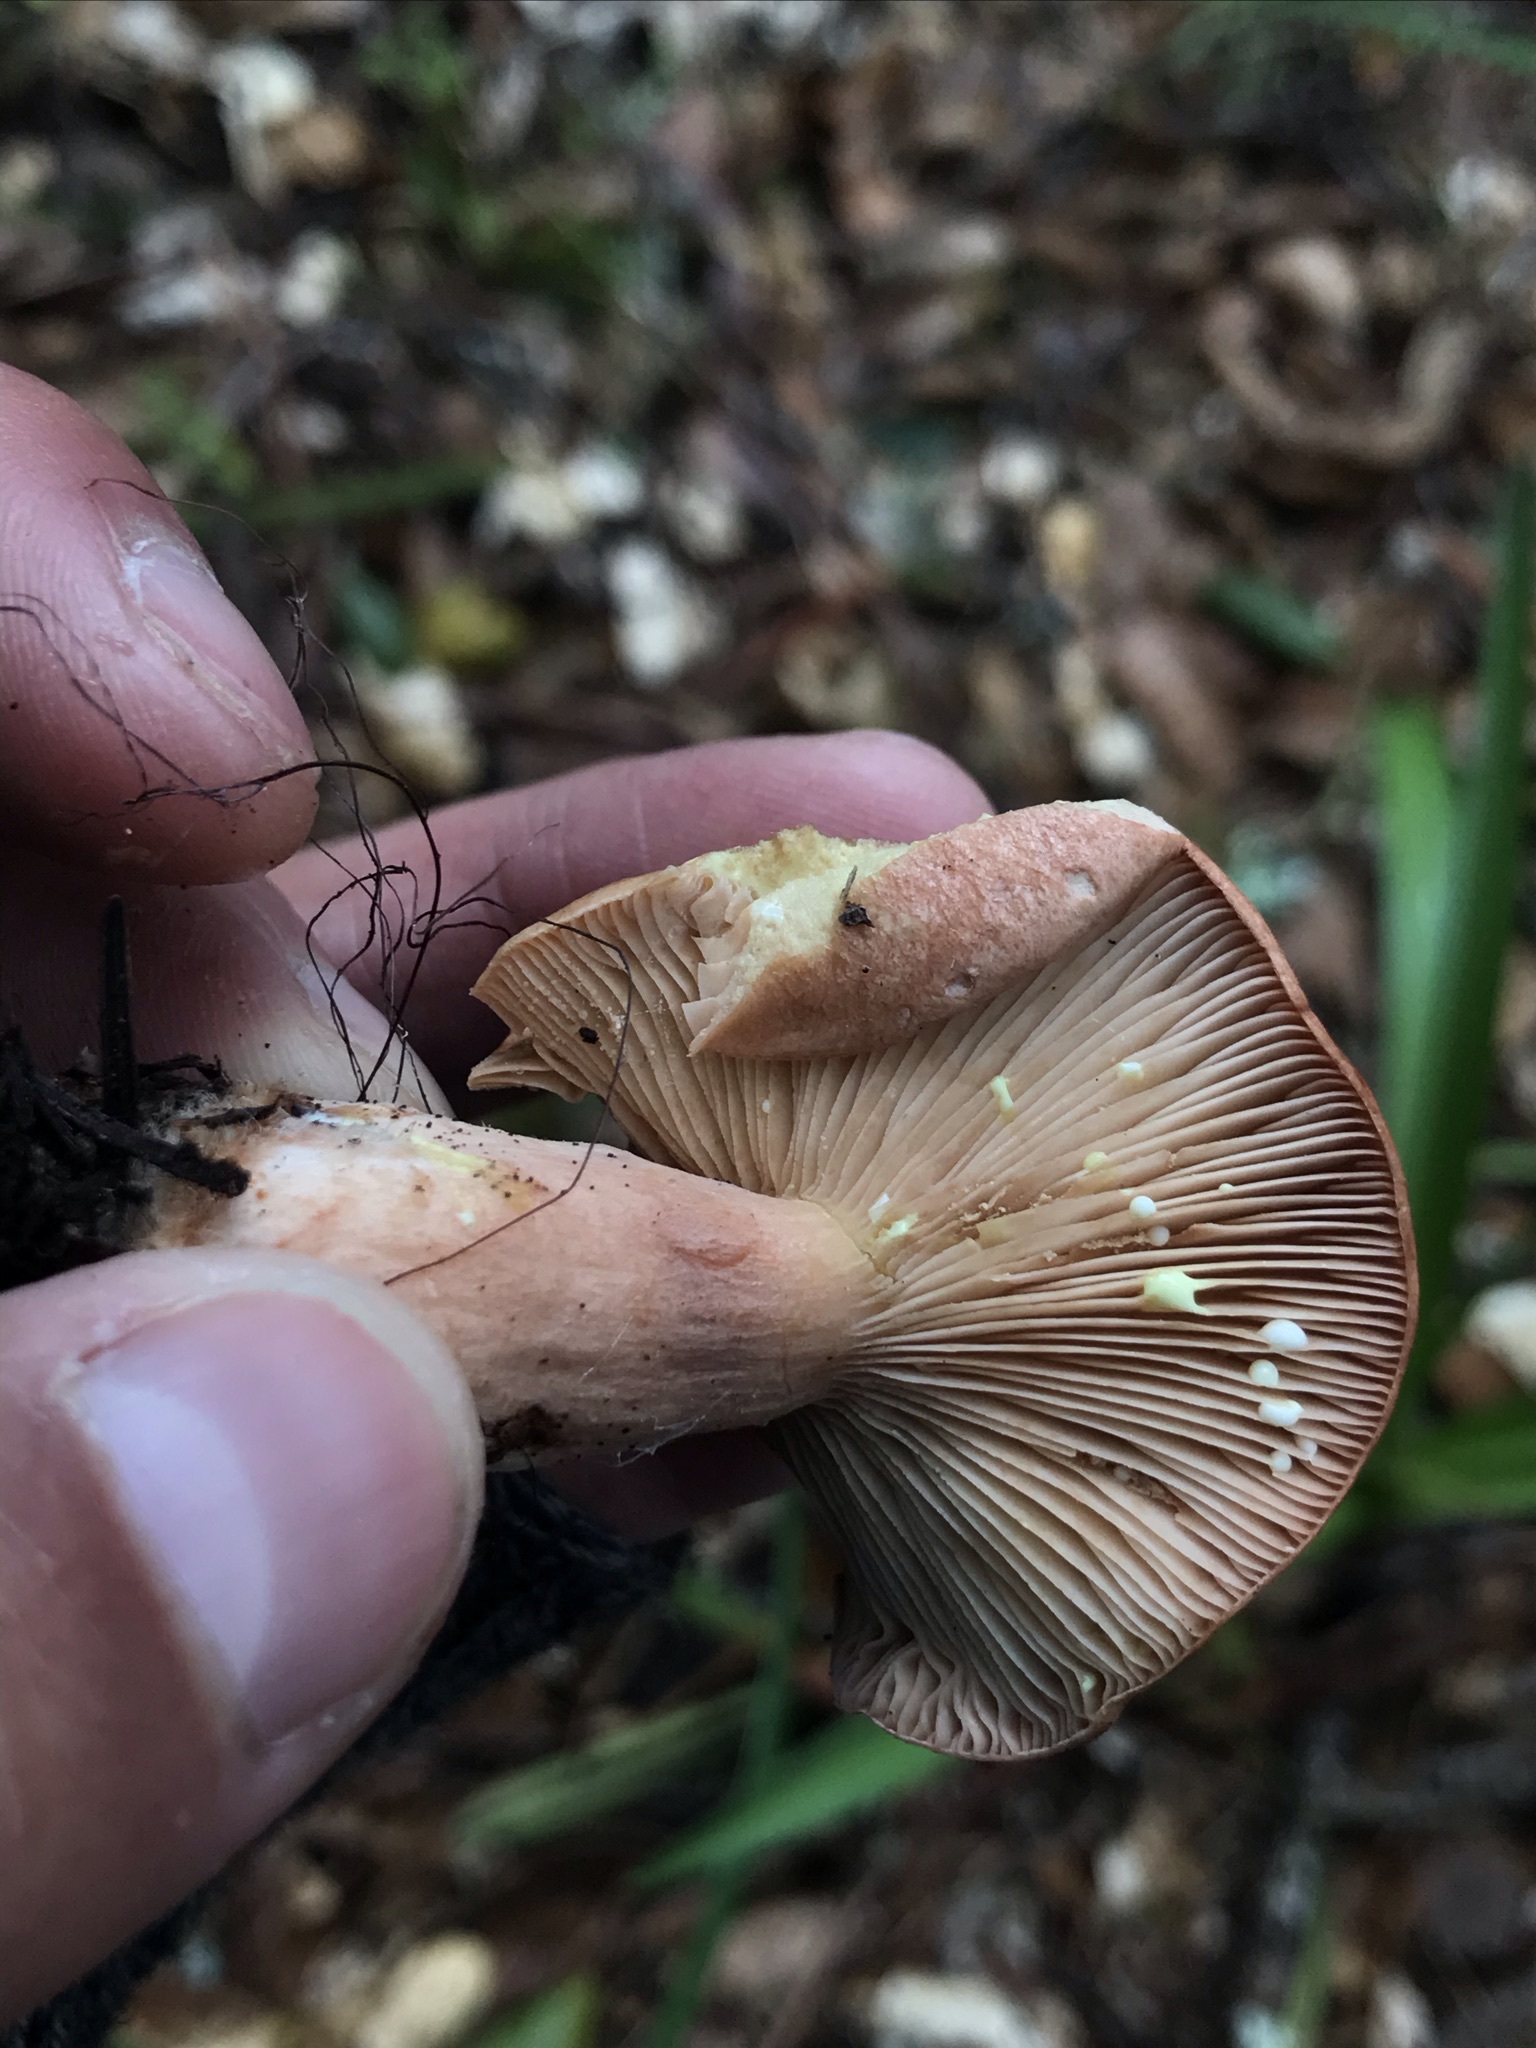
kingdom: Fungi
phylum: Basidiomycota
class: Agaricomycetes
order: Russulales
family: Russulaceae
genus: Lactarius
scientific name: Lactarius xanthogalactus
